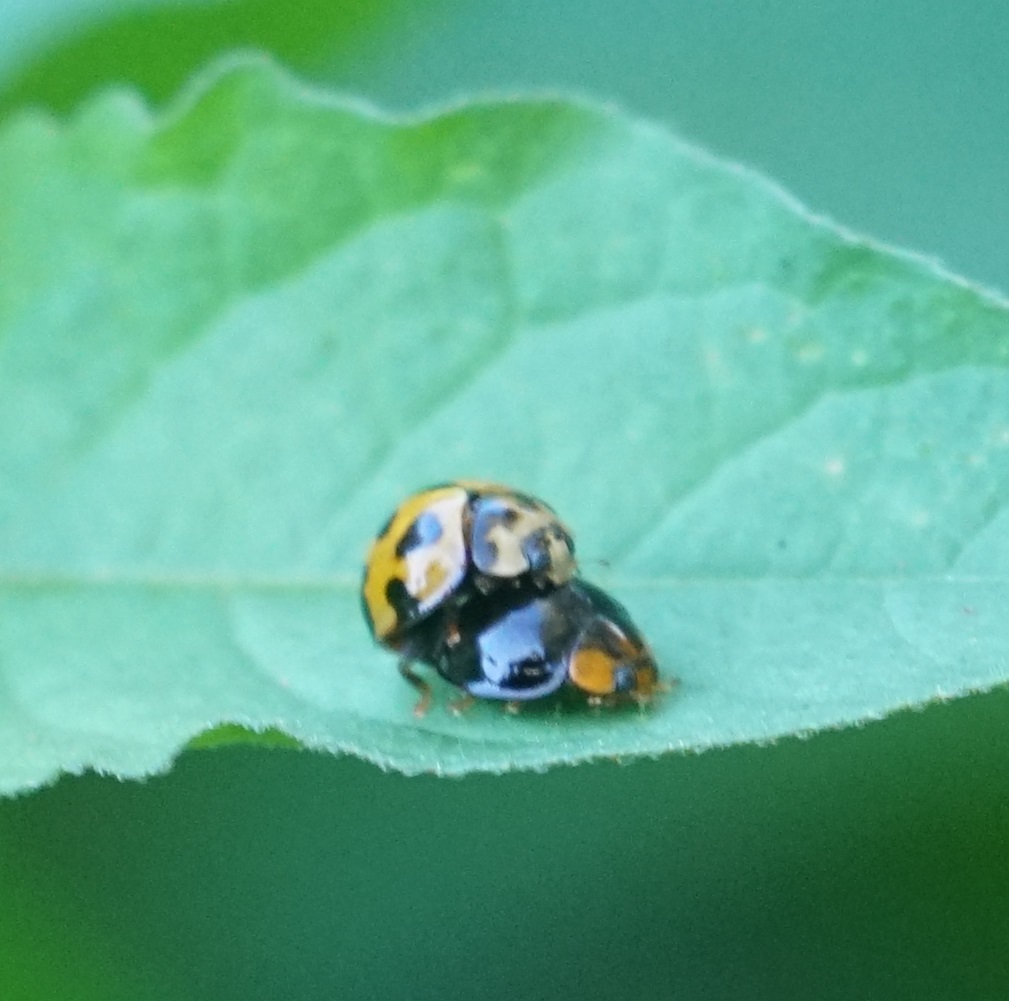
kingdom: Animalia
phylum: Arthropoda
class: Insecta
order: Coleoptera
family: Coccinellidae
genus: Coelophora
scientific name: Coelophora inaequalis
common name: Common australian lady beetle
